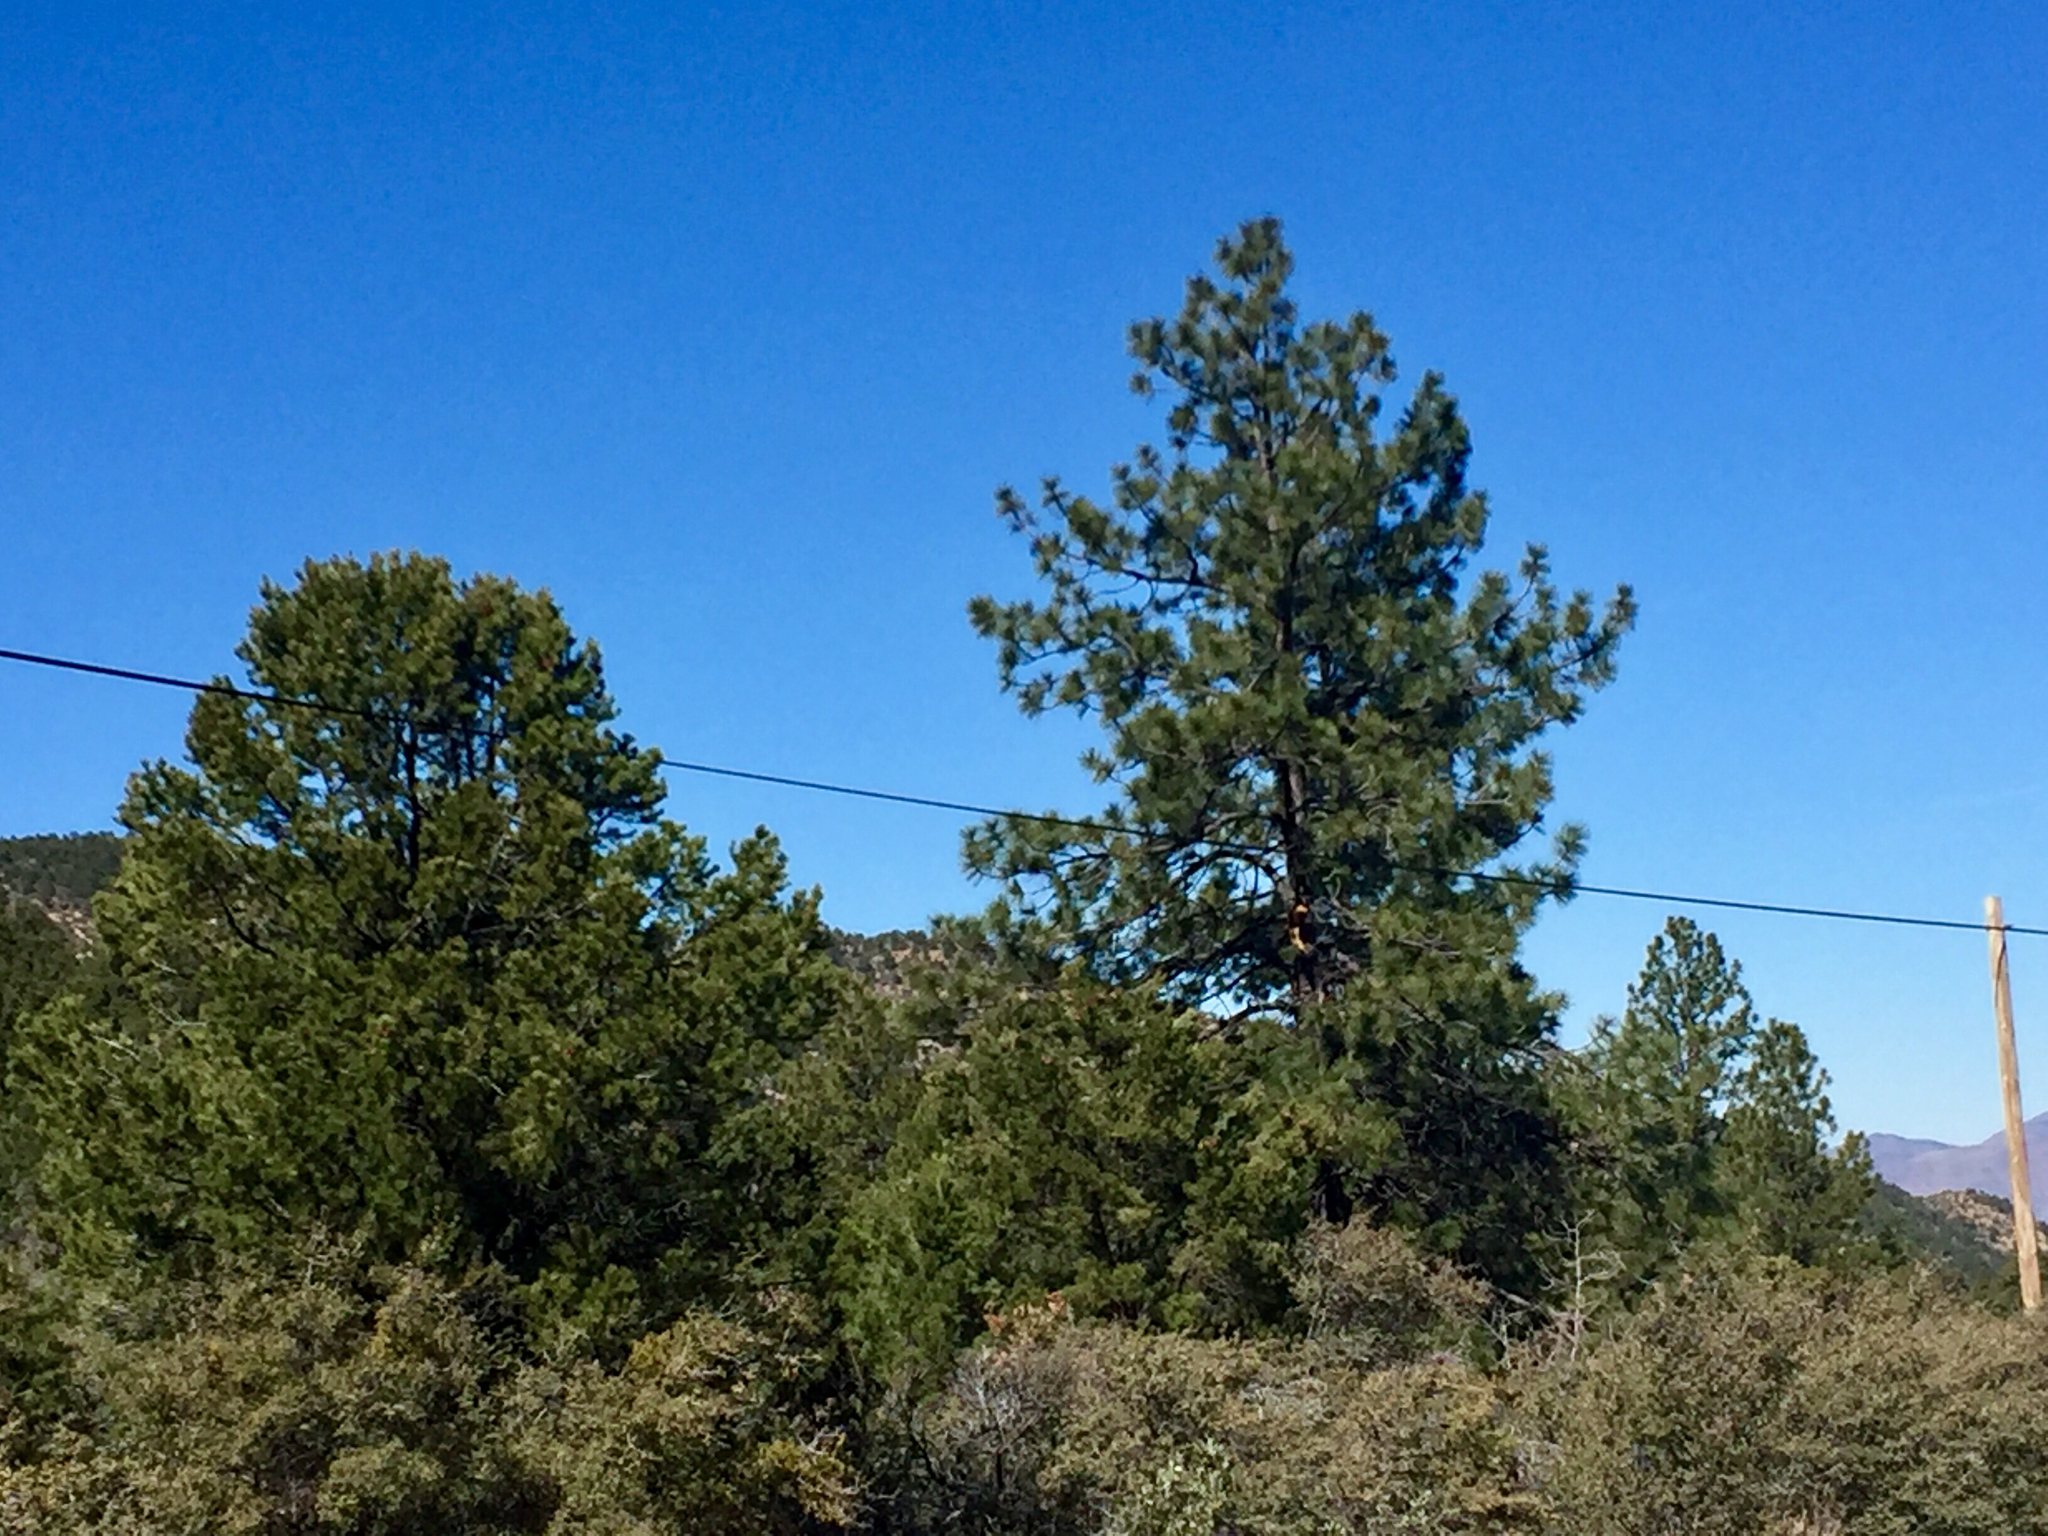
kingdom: Plantae
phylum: Tracheophyta
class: Pinopsida
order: Pinales
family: Pinaceae
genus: Pinus
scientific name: Pinus ponderosa
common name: Western yellow-pine
